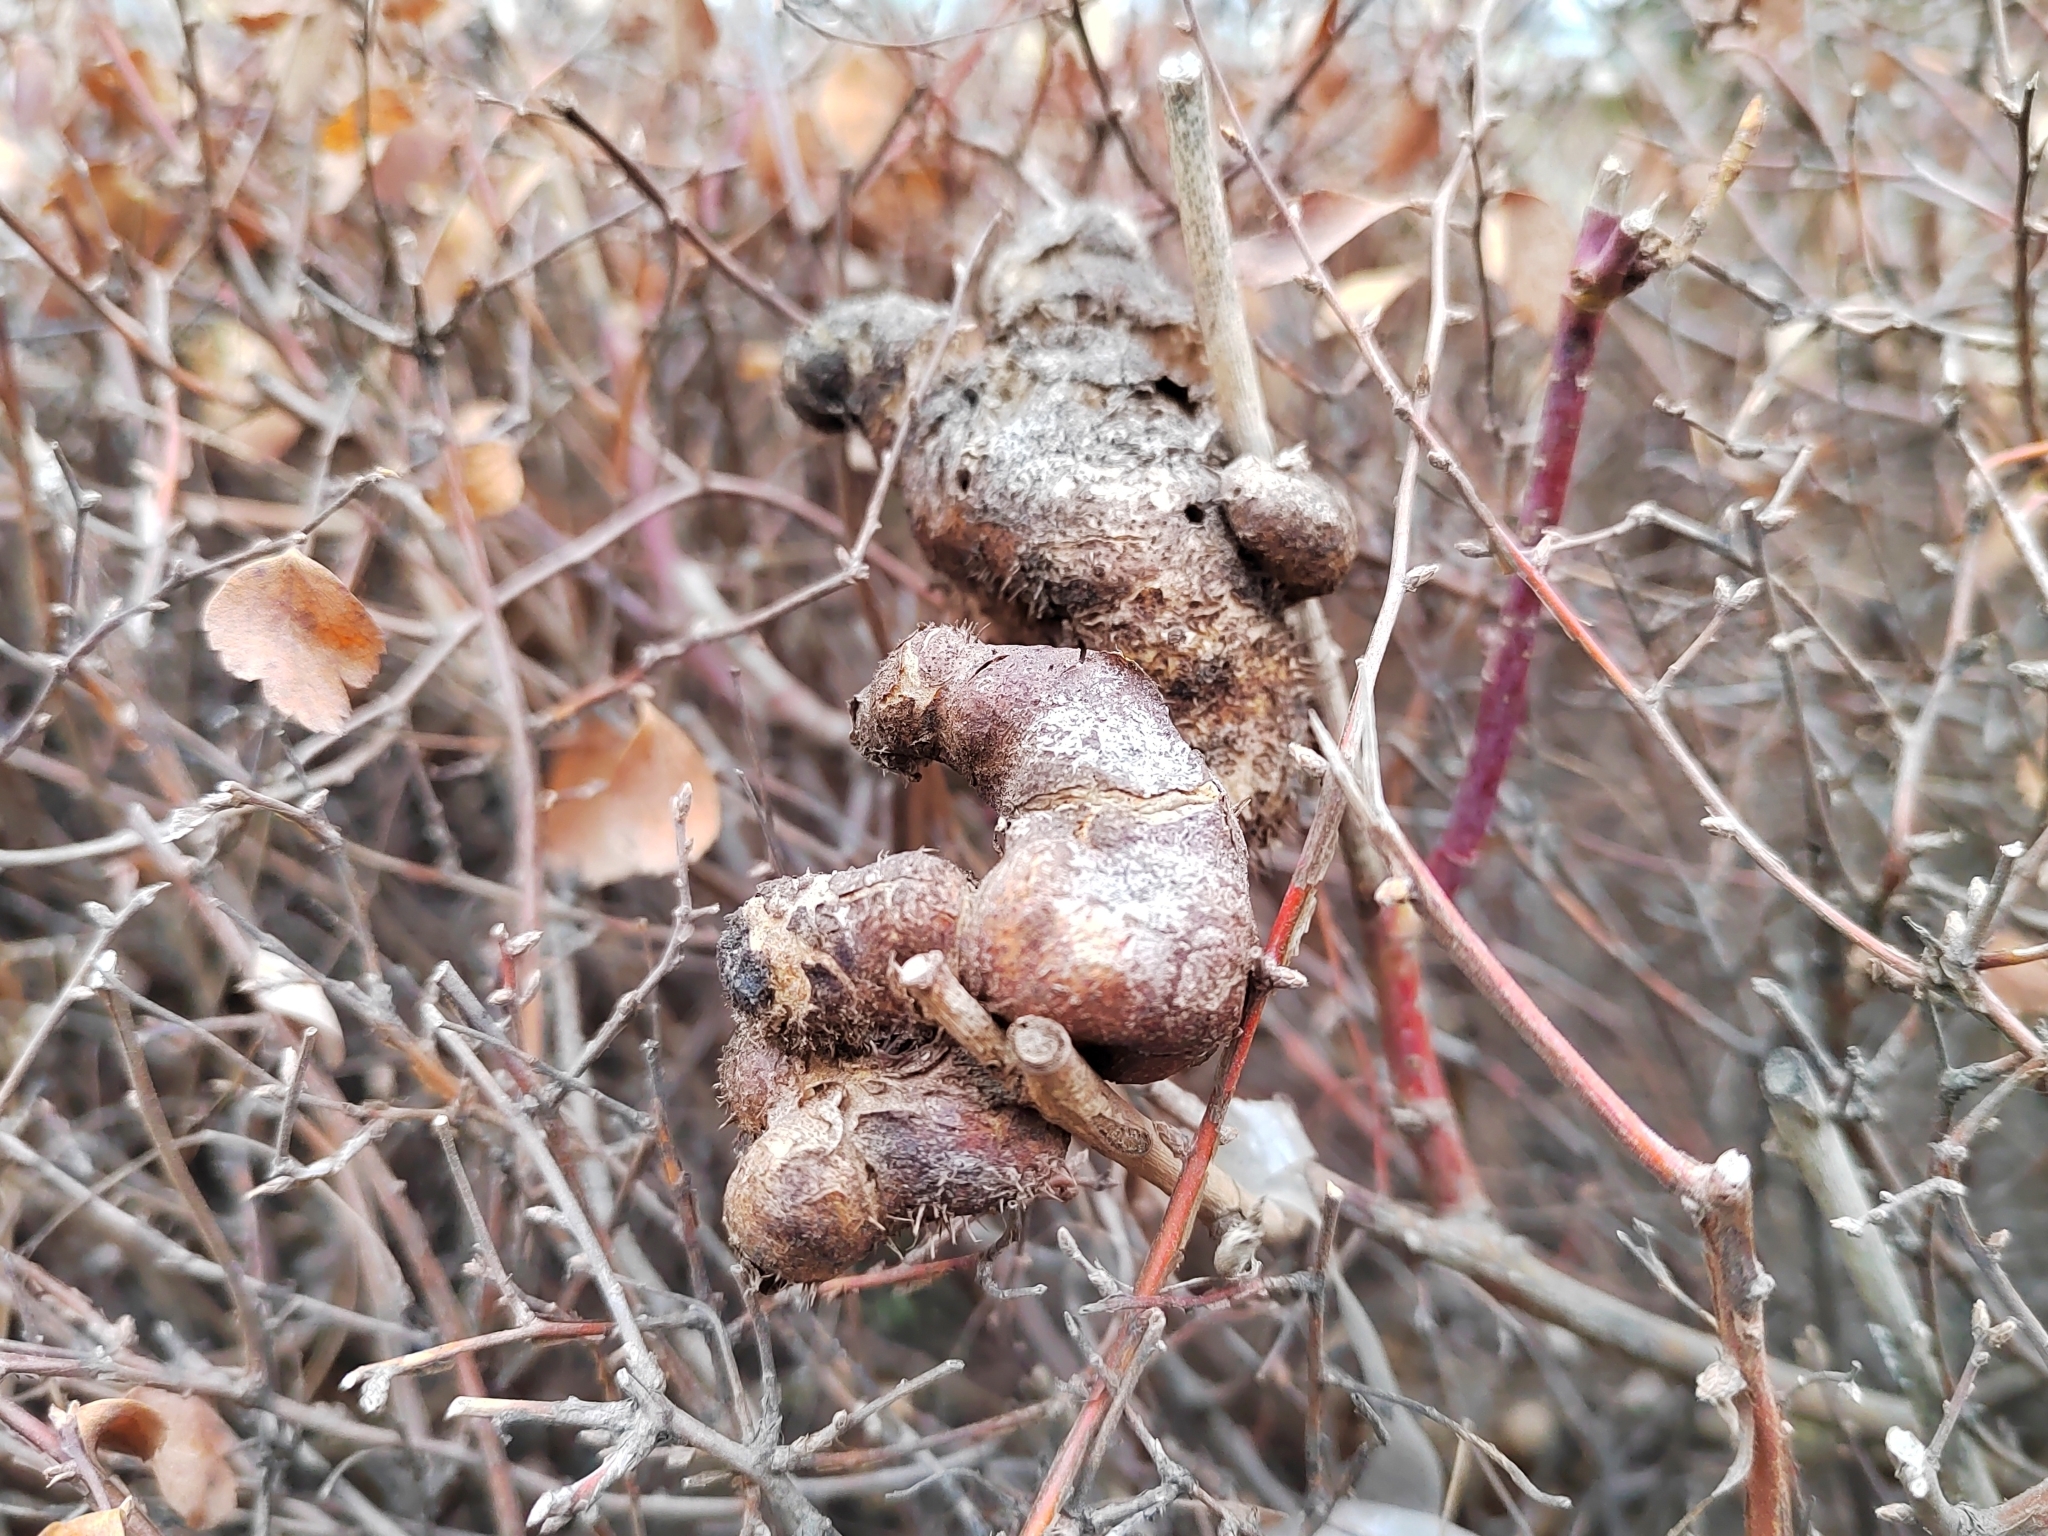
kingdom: Animalia
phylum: Arthropoda
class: Insecta
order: Hymenoptera
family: Cynipidae
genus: Diplolepis
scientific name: Diplolepis mayri
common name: Gall wasp
